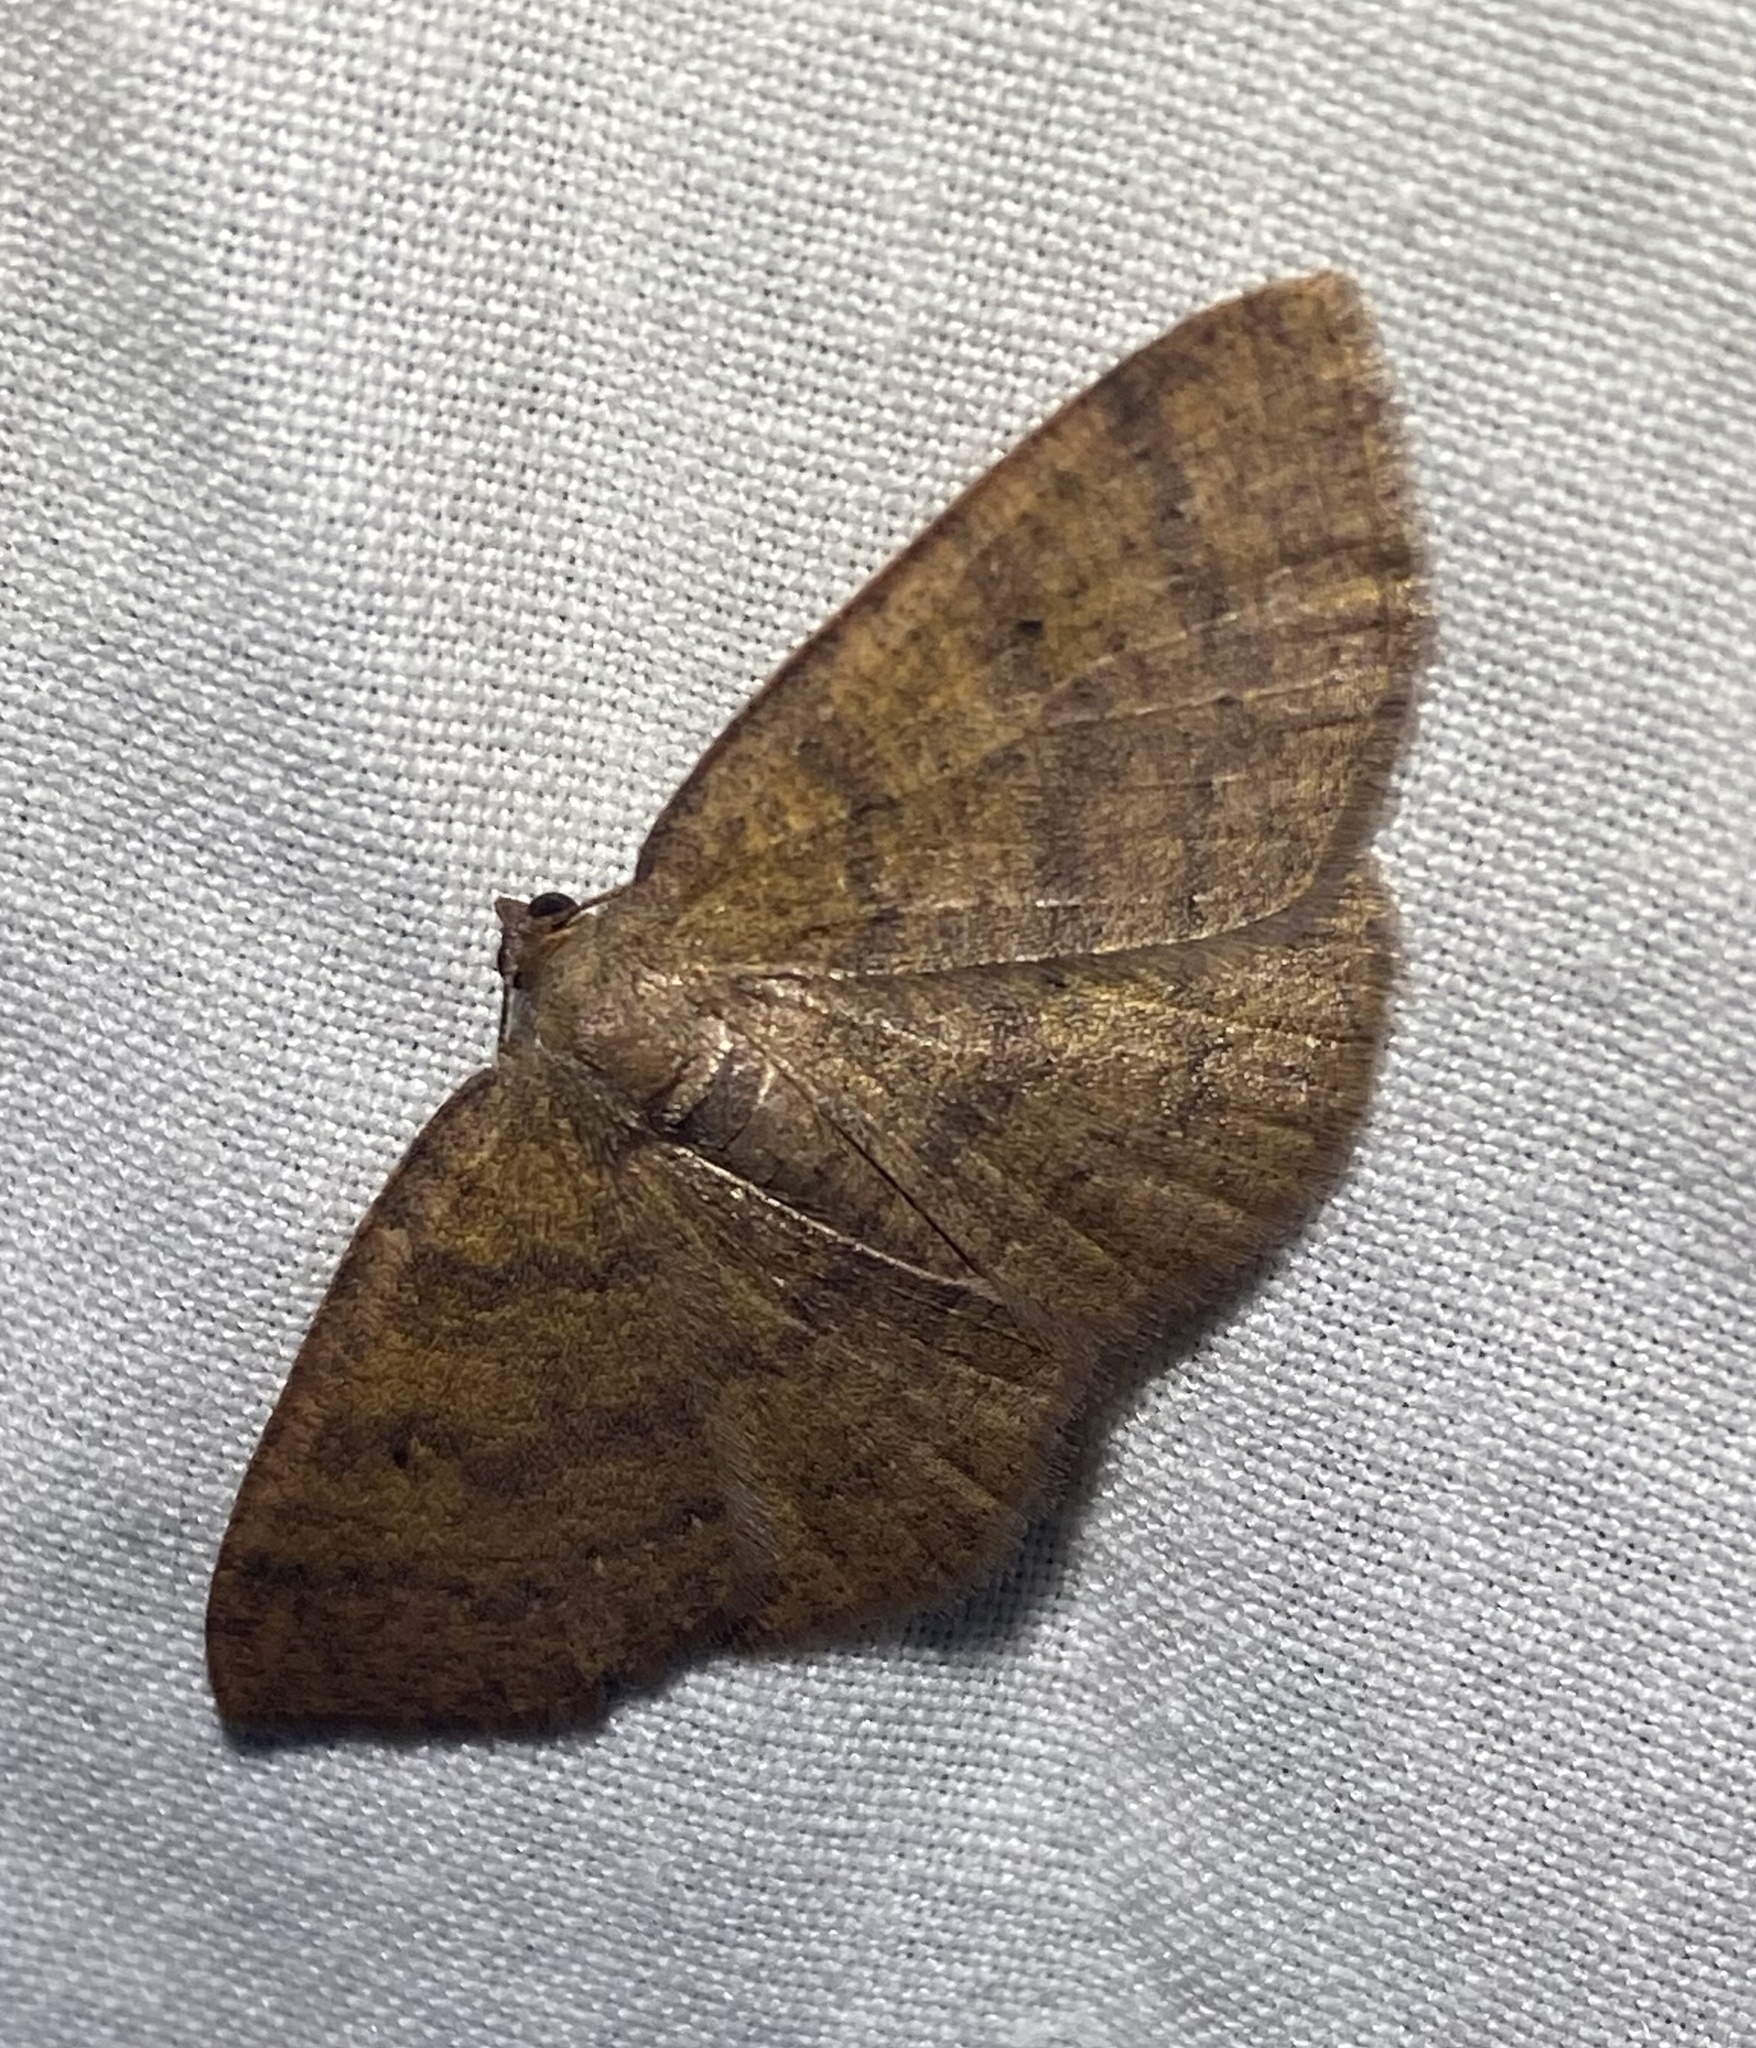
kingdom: Animalia
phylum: Arthropoda
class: Insecta
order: Lepidoptera
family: Geometridae
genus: Ilexia
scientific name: Ilexia intractata
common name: Black-dotted ruddy moth
